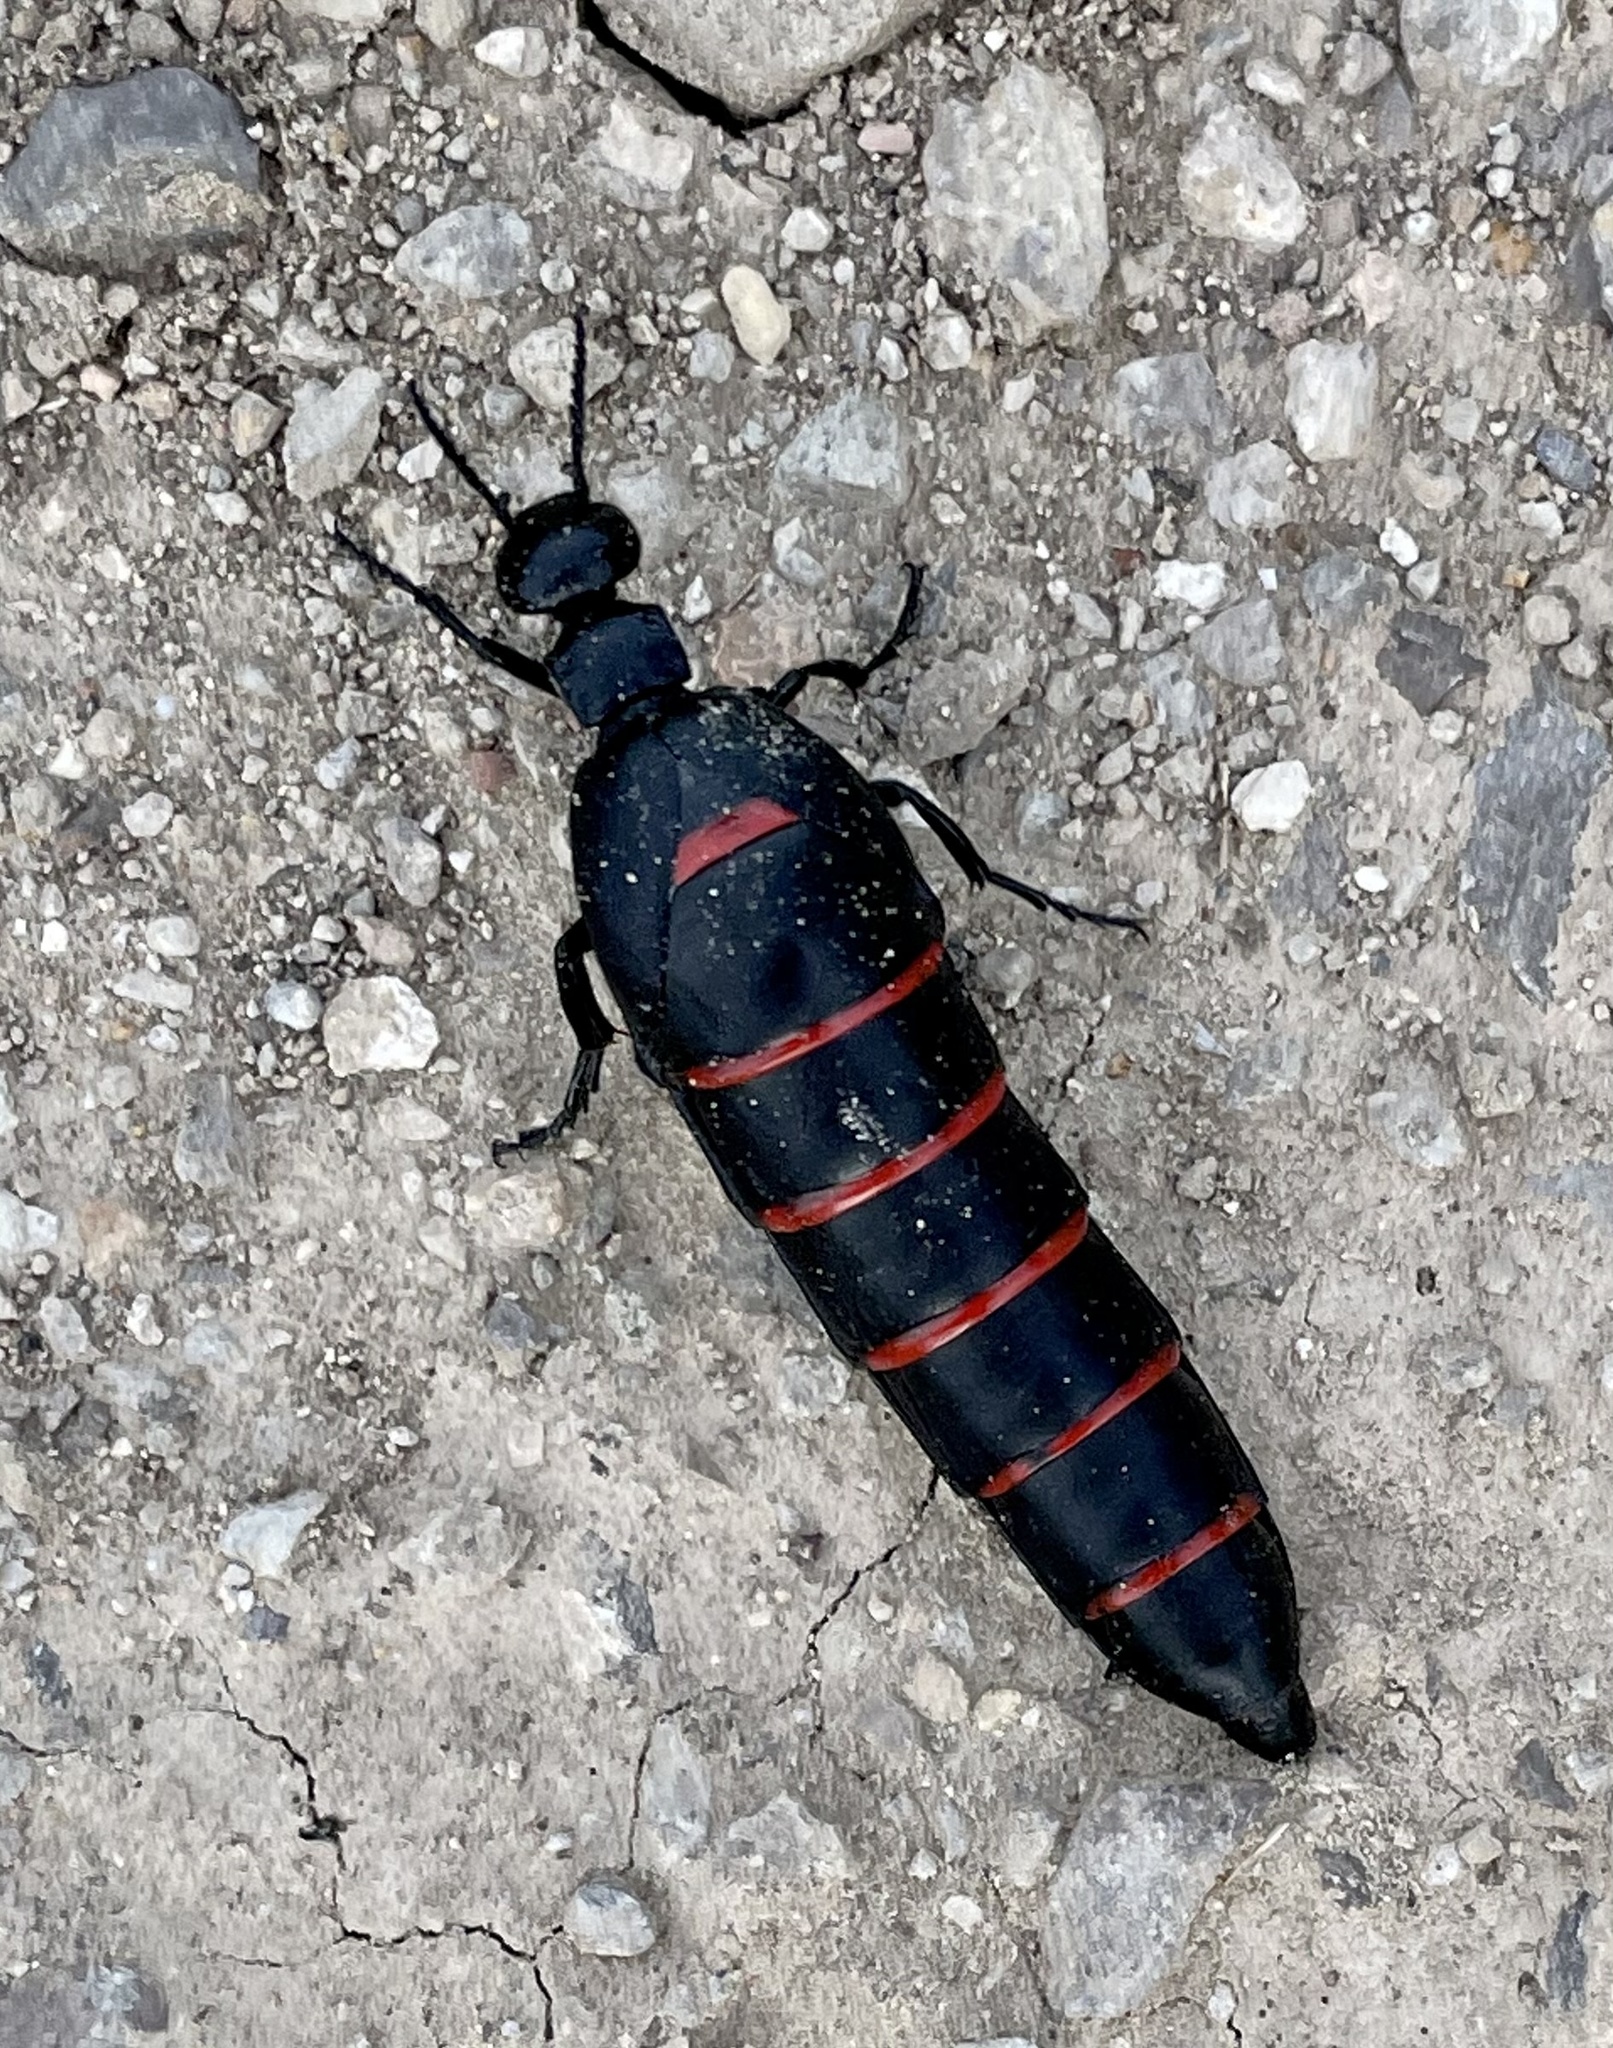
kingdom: Animalia
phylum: Arthropoda
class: Insecta
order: Coleoptera
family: Meloidae
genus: Berberomeloe
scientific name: Berberomeloe majalis
